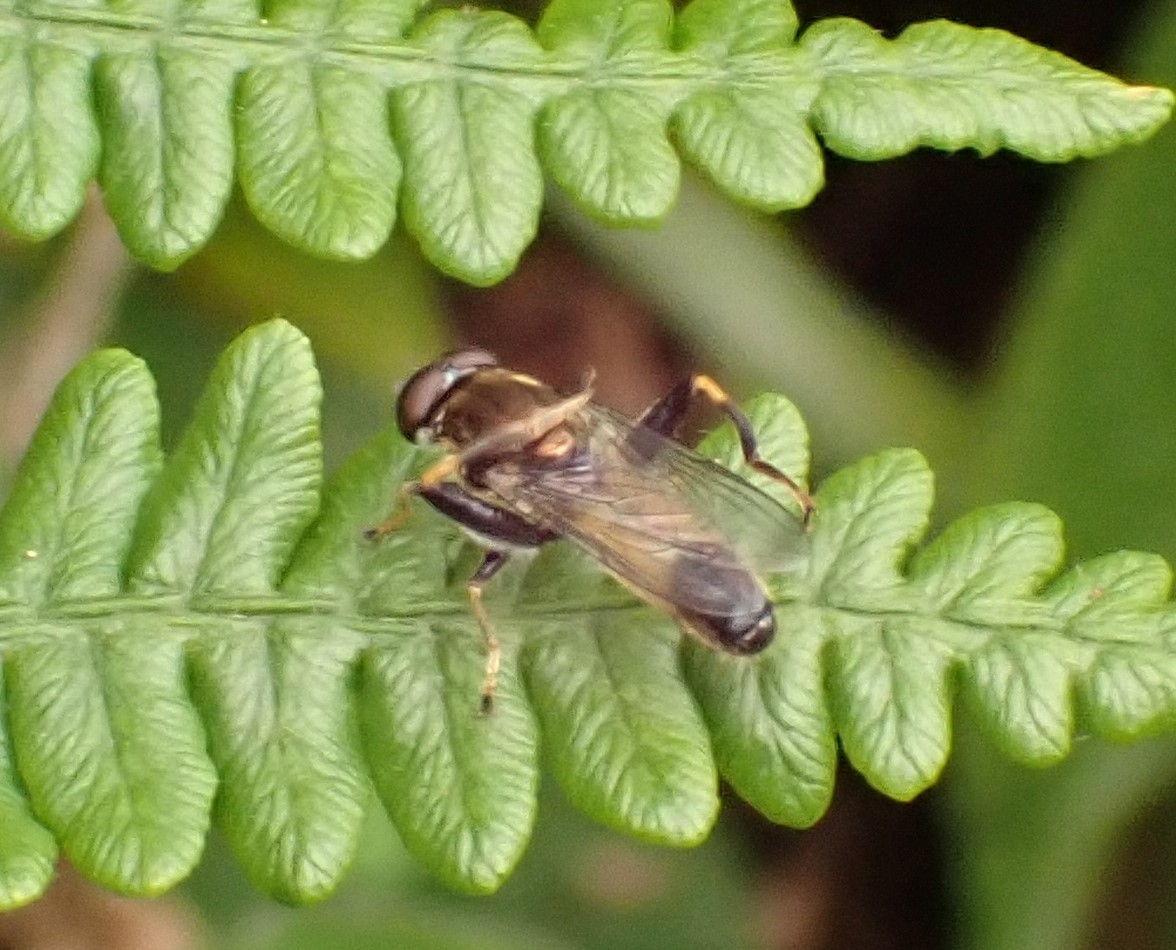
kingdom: Animalia
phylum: Arthropoda
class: Insecta
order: Diptera
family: Syrphidae
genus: Xylota
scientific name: Xylota segnis
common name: Brown-toed forest fly
